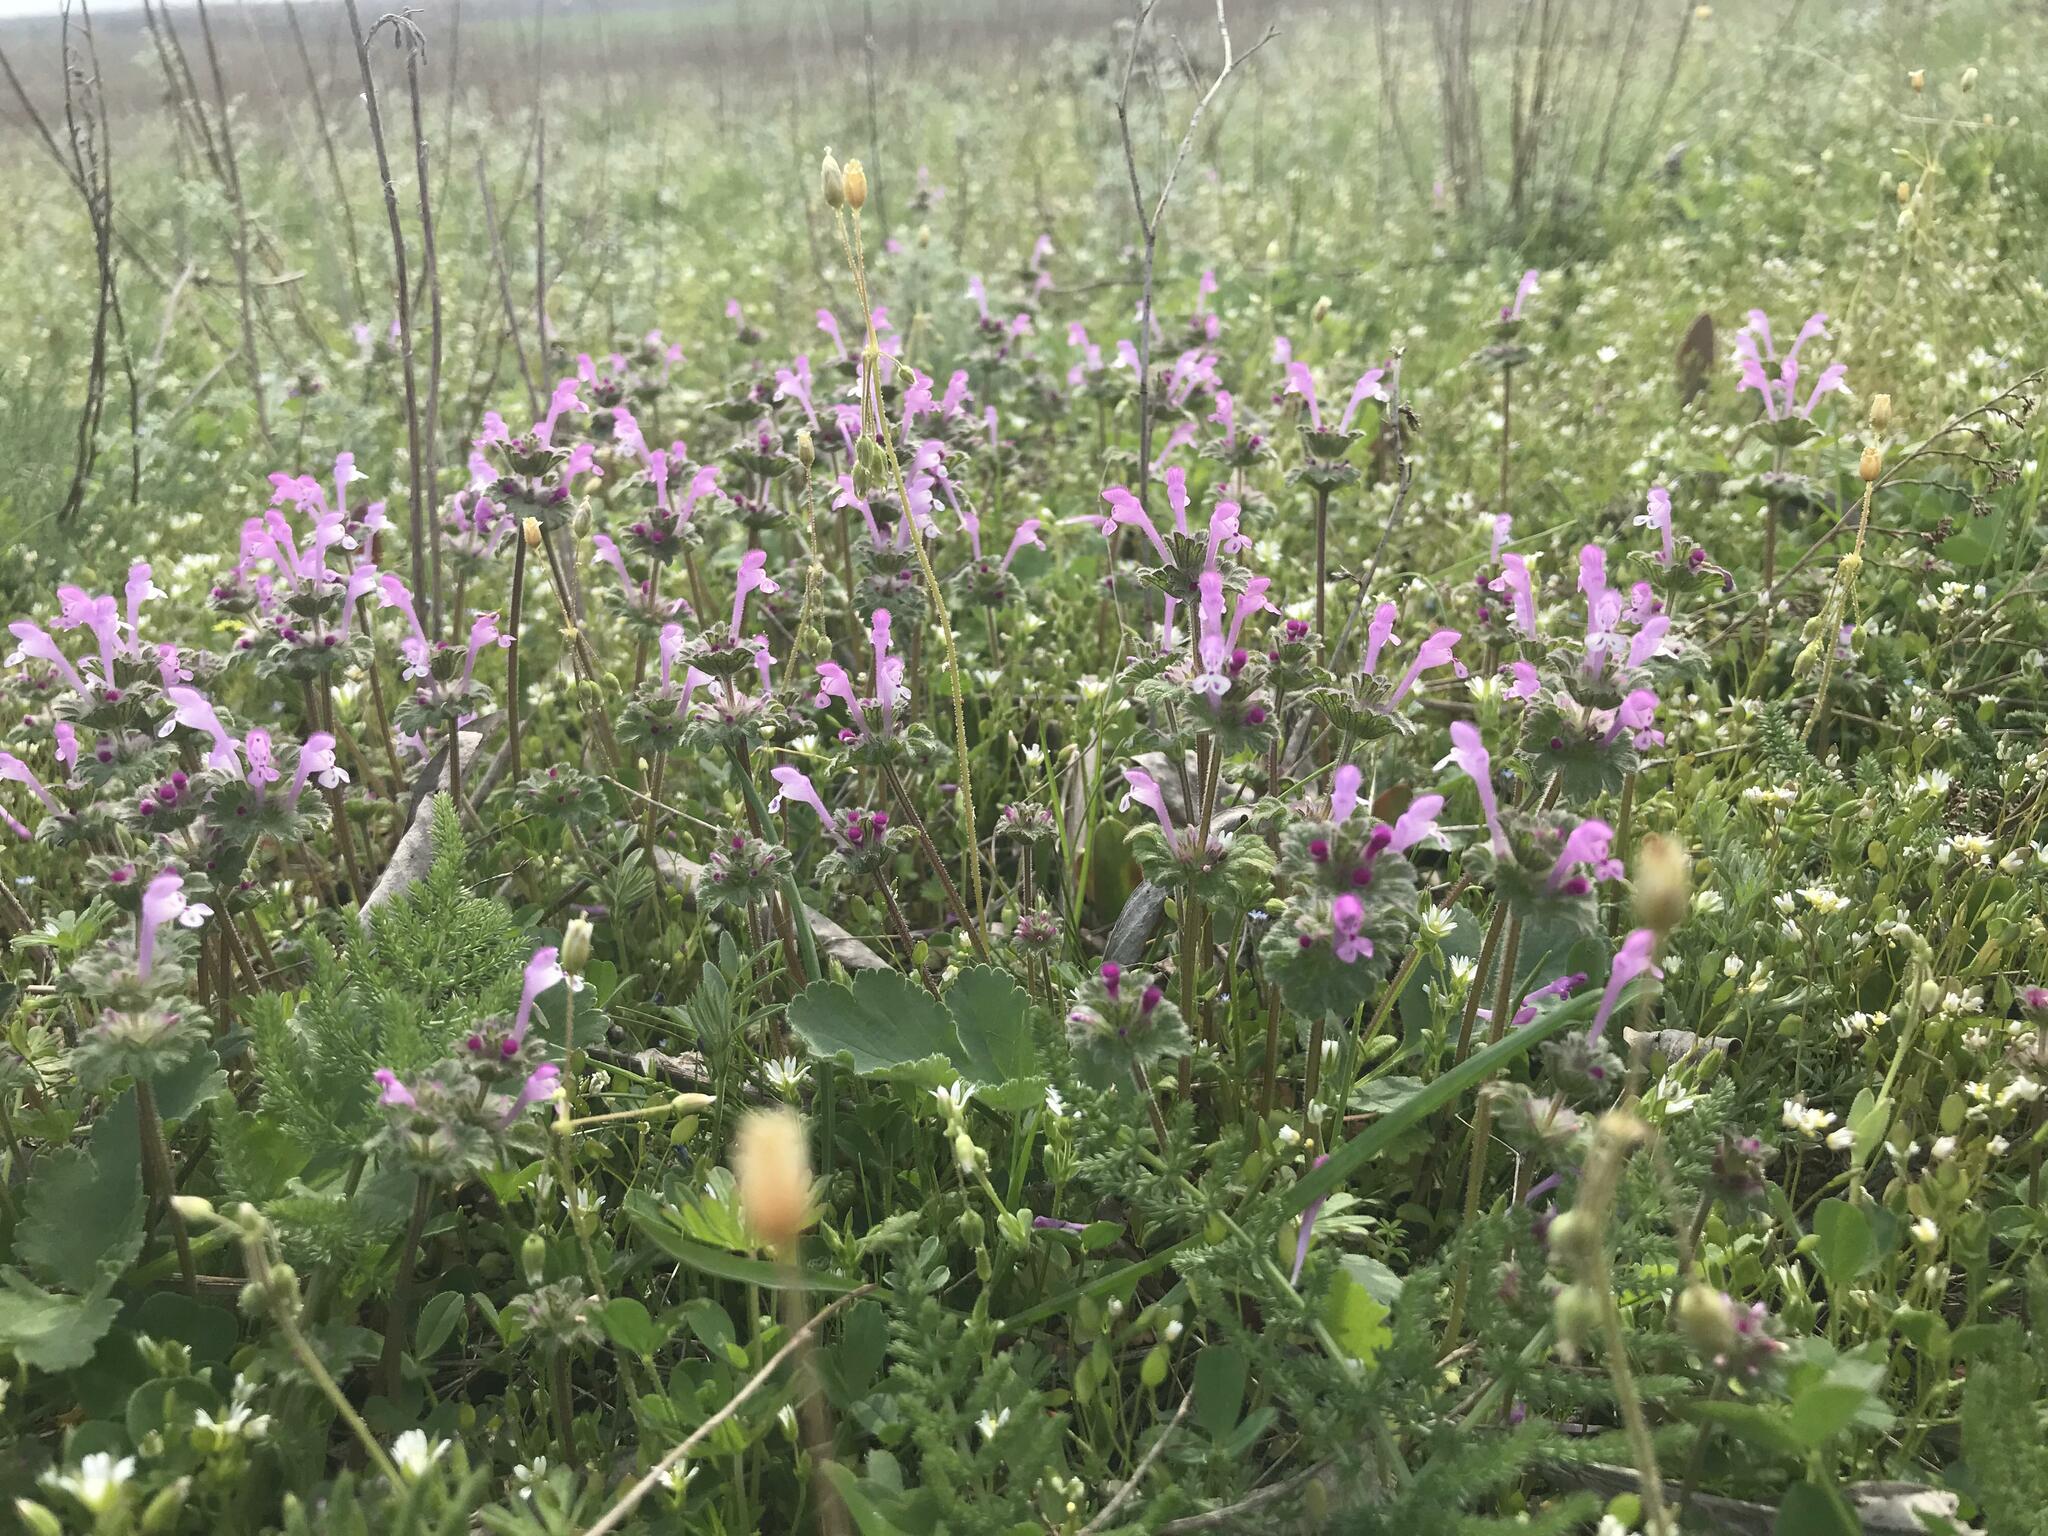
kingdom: Plantae
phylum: Tracheophyta
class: Magnoliopsida
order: Lamiales
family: Lamiaceae
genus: Lamium
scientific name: Lamium amplexicaule
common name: Henbit dead-nettle
